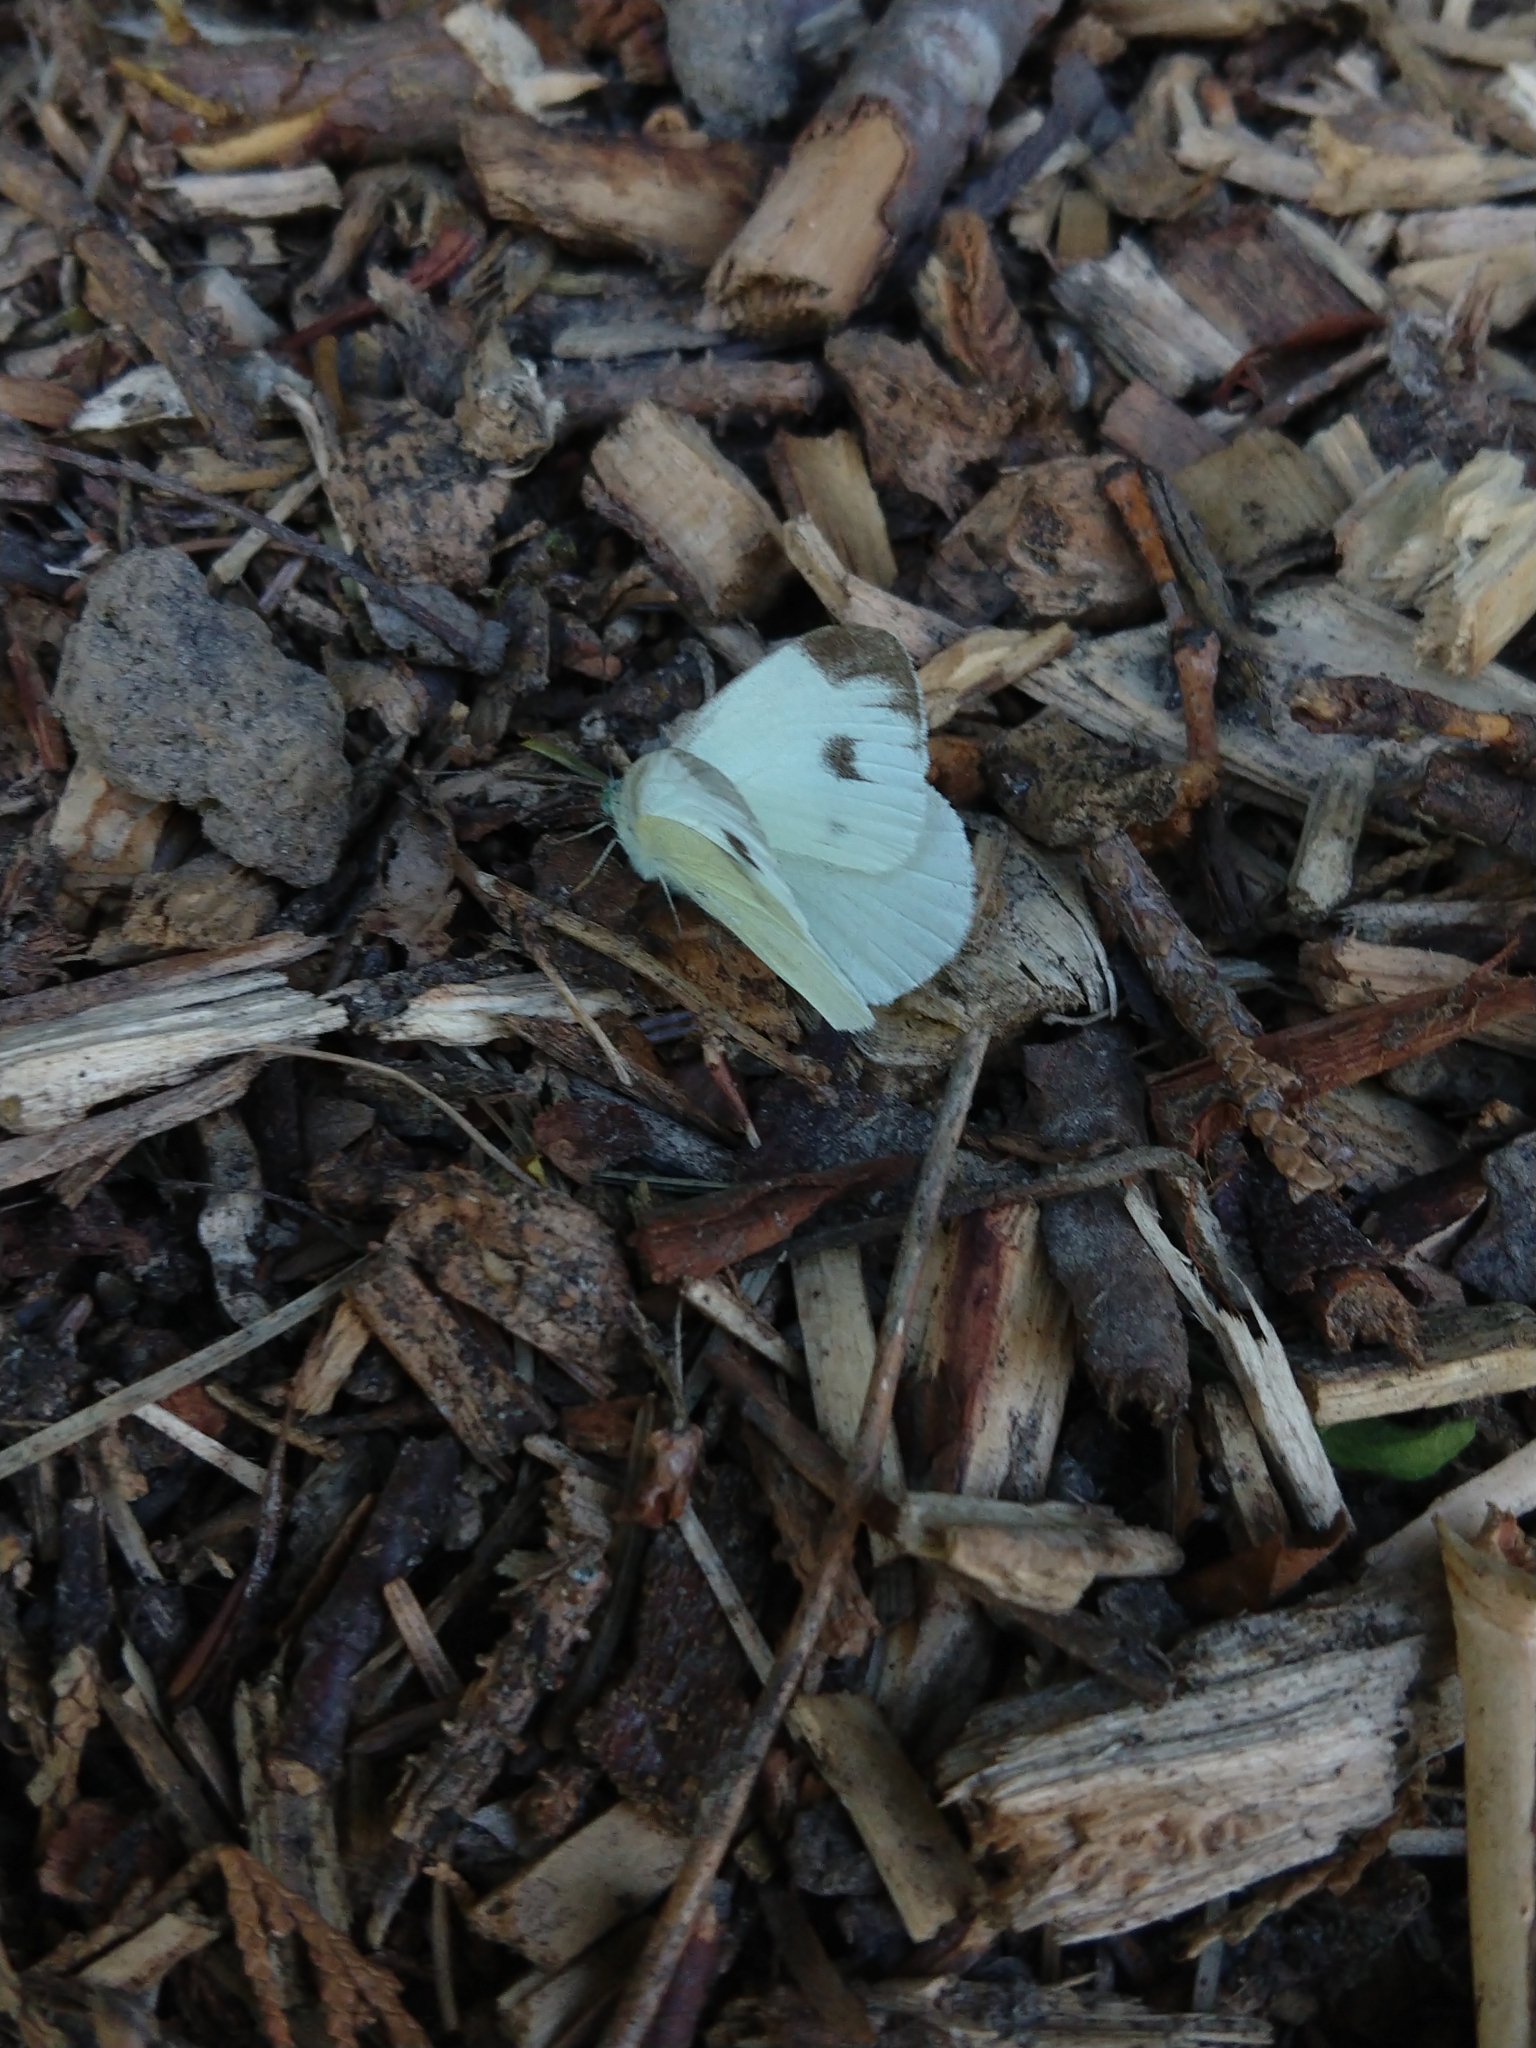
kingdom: Animalia
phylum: Arthropoda
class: Insecta
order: Lepidoptera
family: Pieridae
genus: Pieris
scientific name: Pieris mannii
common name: Southern small white
